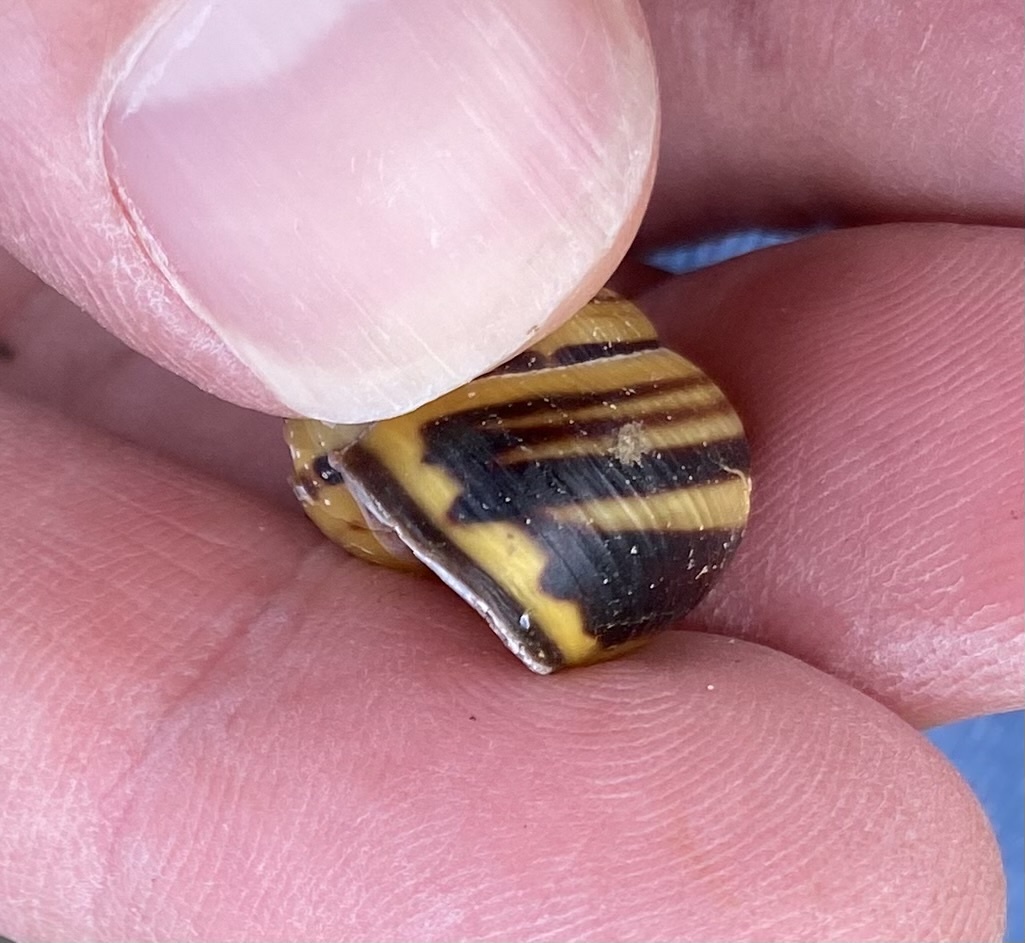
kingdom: Animalia
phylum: Mollusca
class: Gastropoda
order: Stylommatophora
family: Helicidae
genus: Cepaea
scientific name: Cepaea nemoralis
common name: Grovesnail
